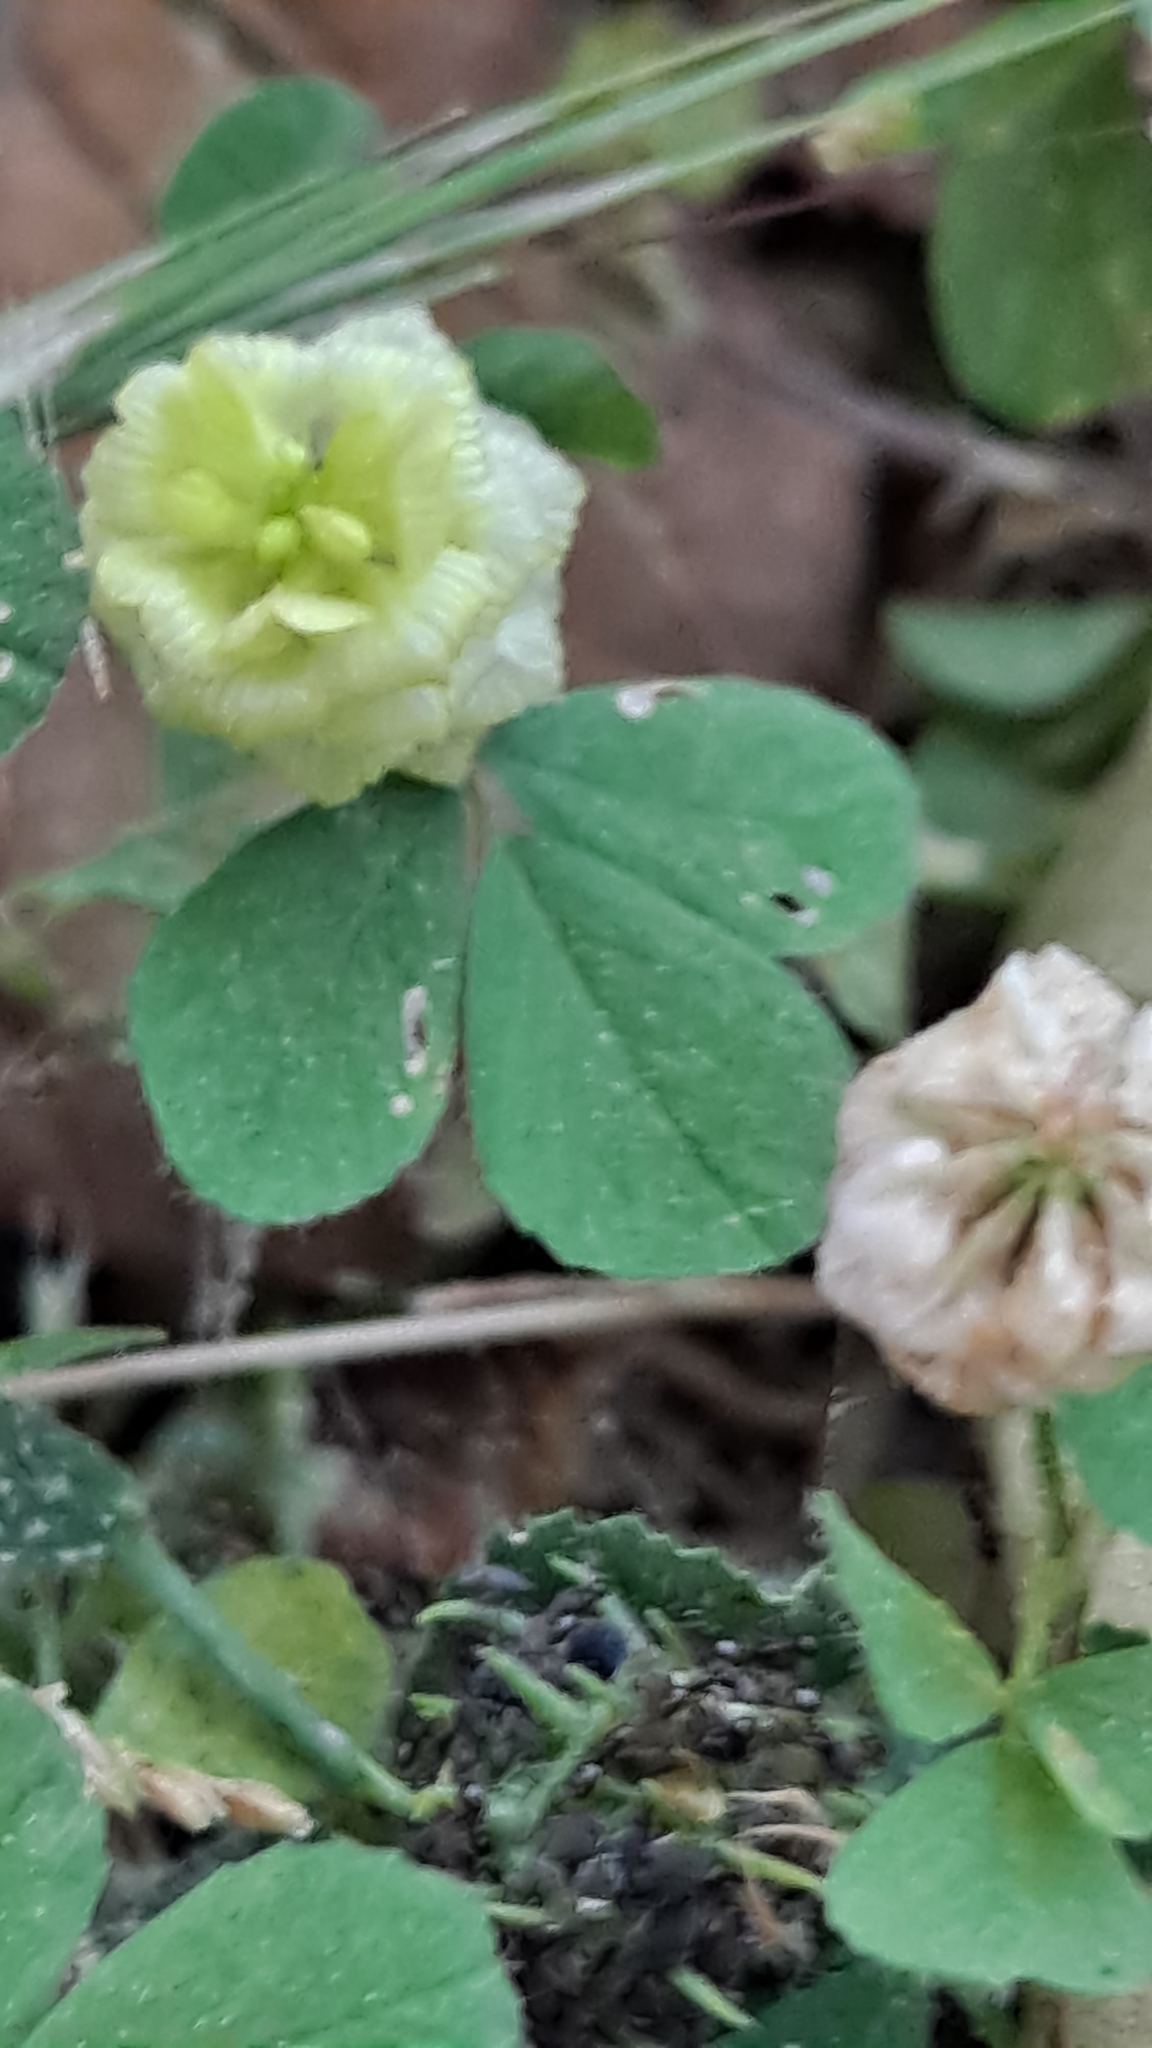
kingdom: Plantae
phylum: Tracheophyta
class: Magnoliopsida
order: Fabales
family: Fabaceae
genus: Trifolium
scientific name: Trifolium campestre
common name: Field clover
